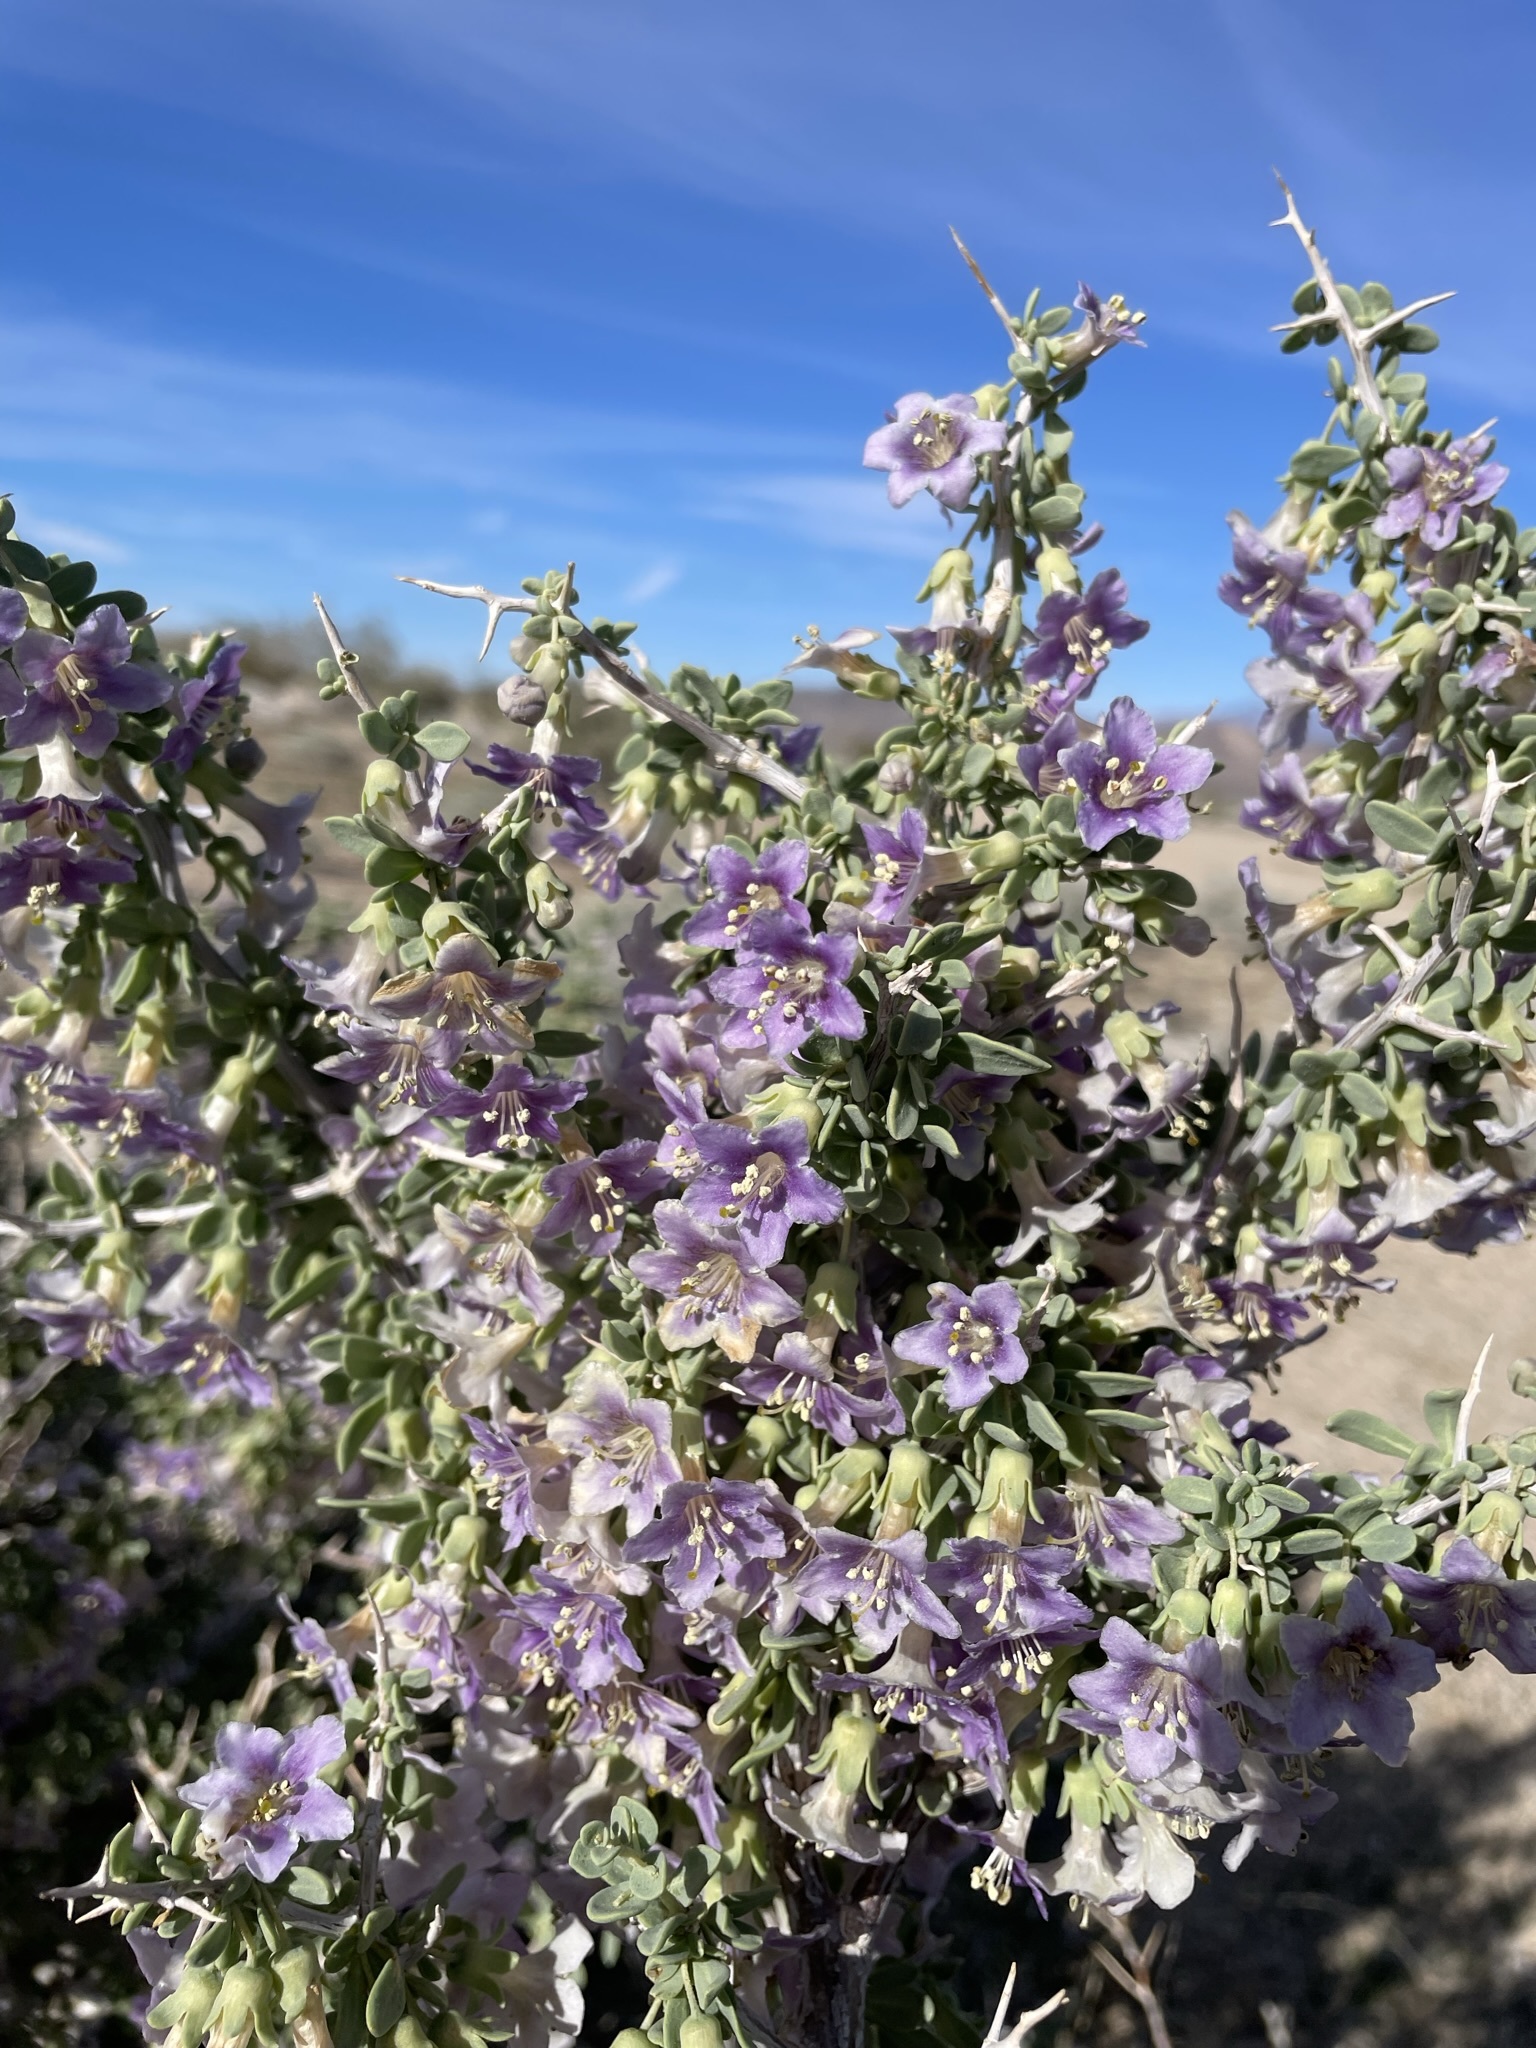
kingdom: Plantae
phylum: Tracheophyta
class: Magnoliopsida
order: Solanales
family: Solanaceae
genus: Lycium
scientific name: Lycium pallidum
